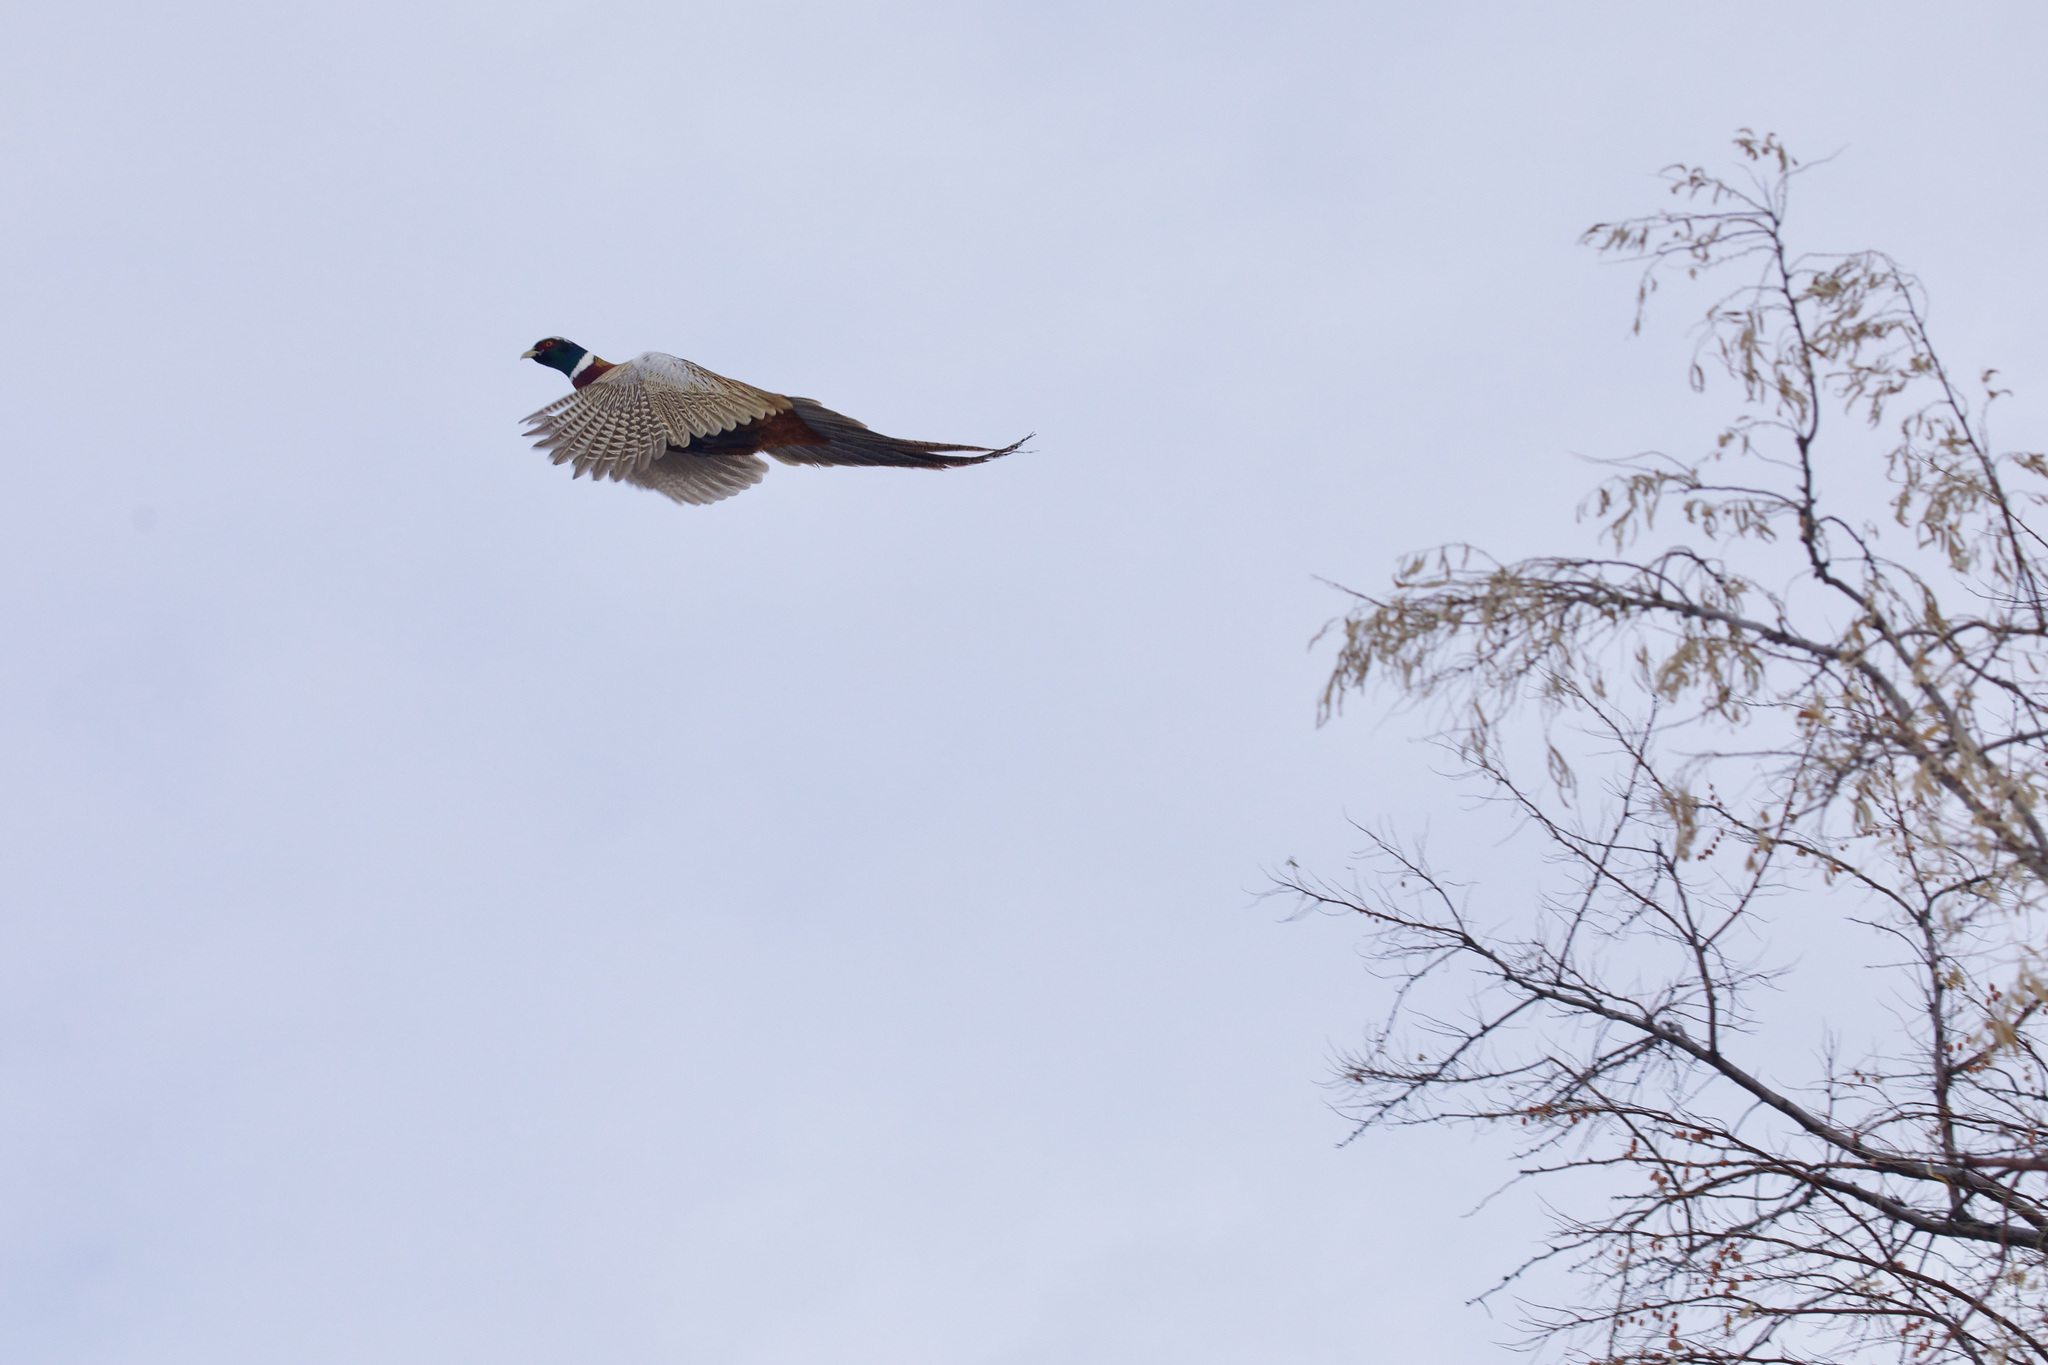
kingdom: Animalia
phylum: Chordata
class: Aves
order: Galliformes
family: Phasianidae
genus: Phasianus
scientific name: Phasianus colchicus
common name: Common pheasant
